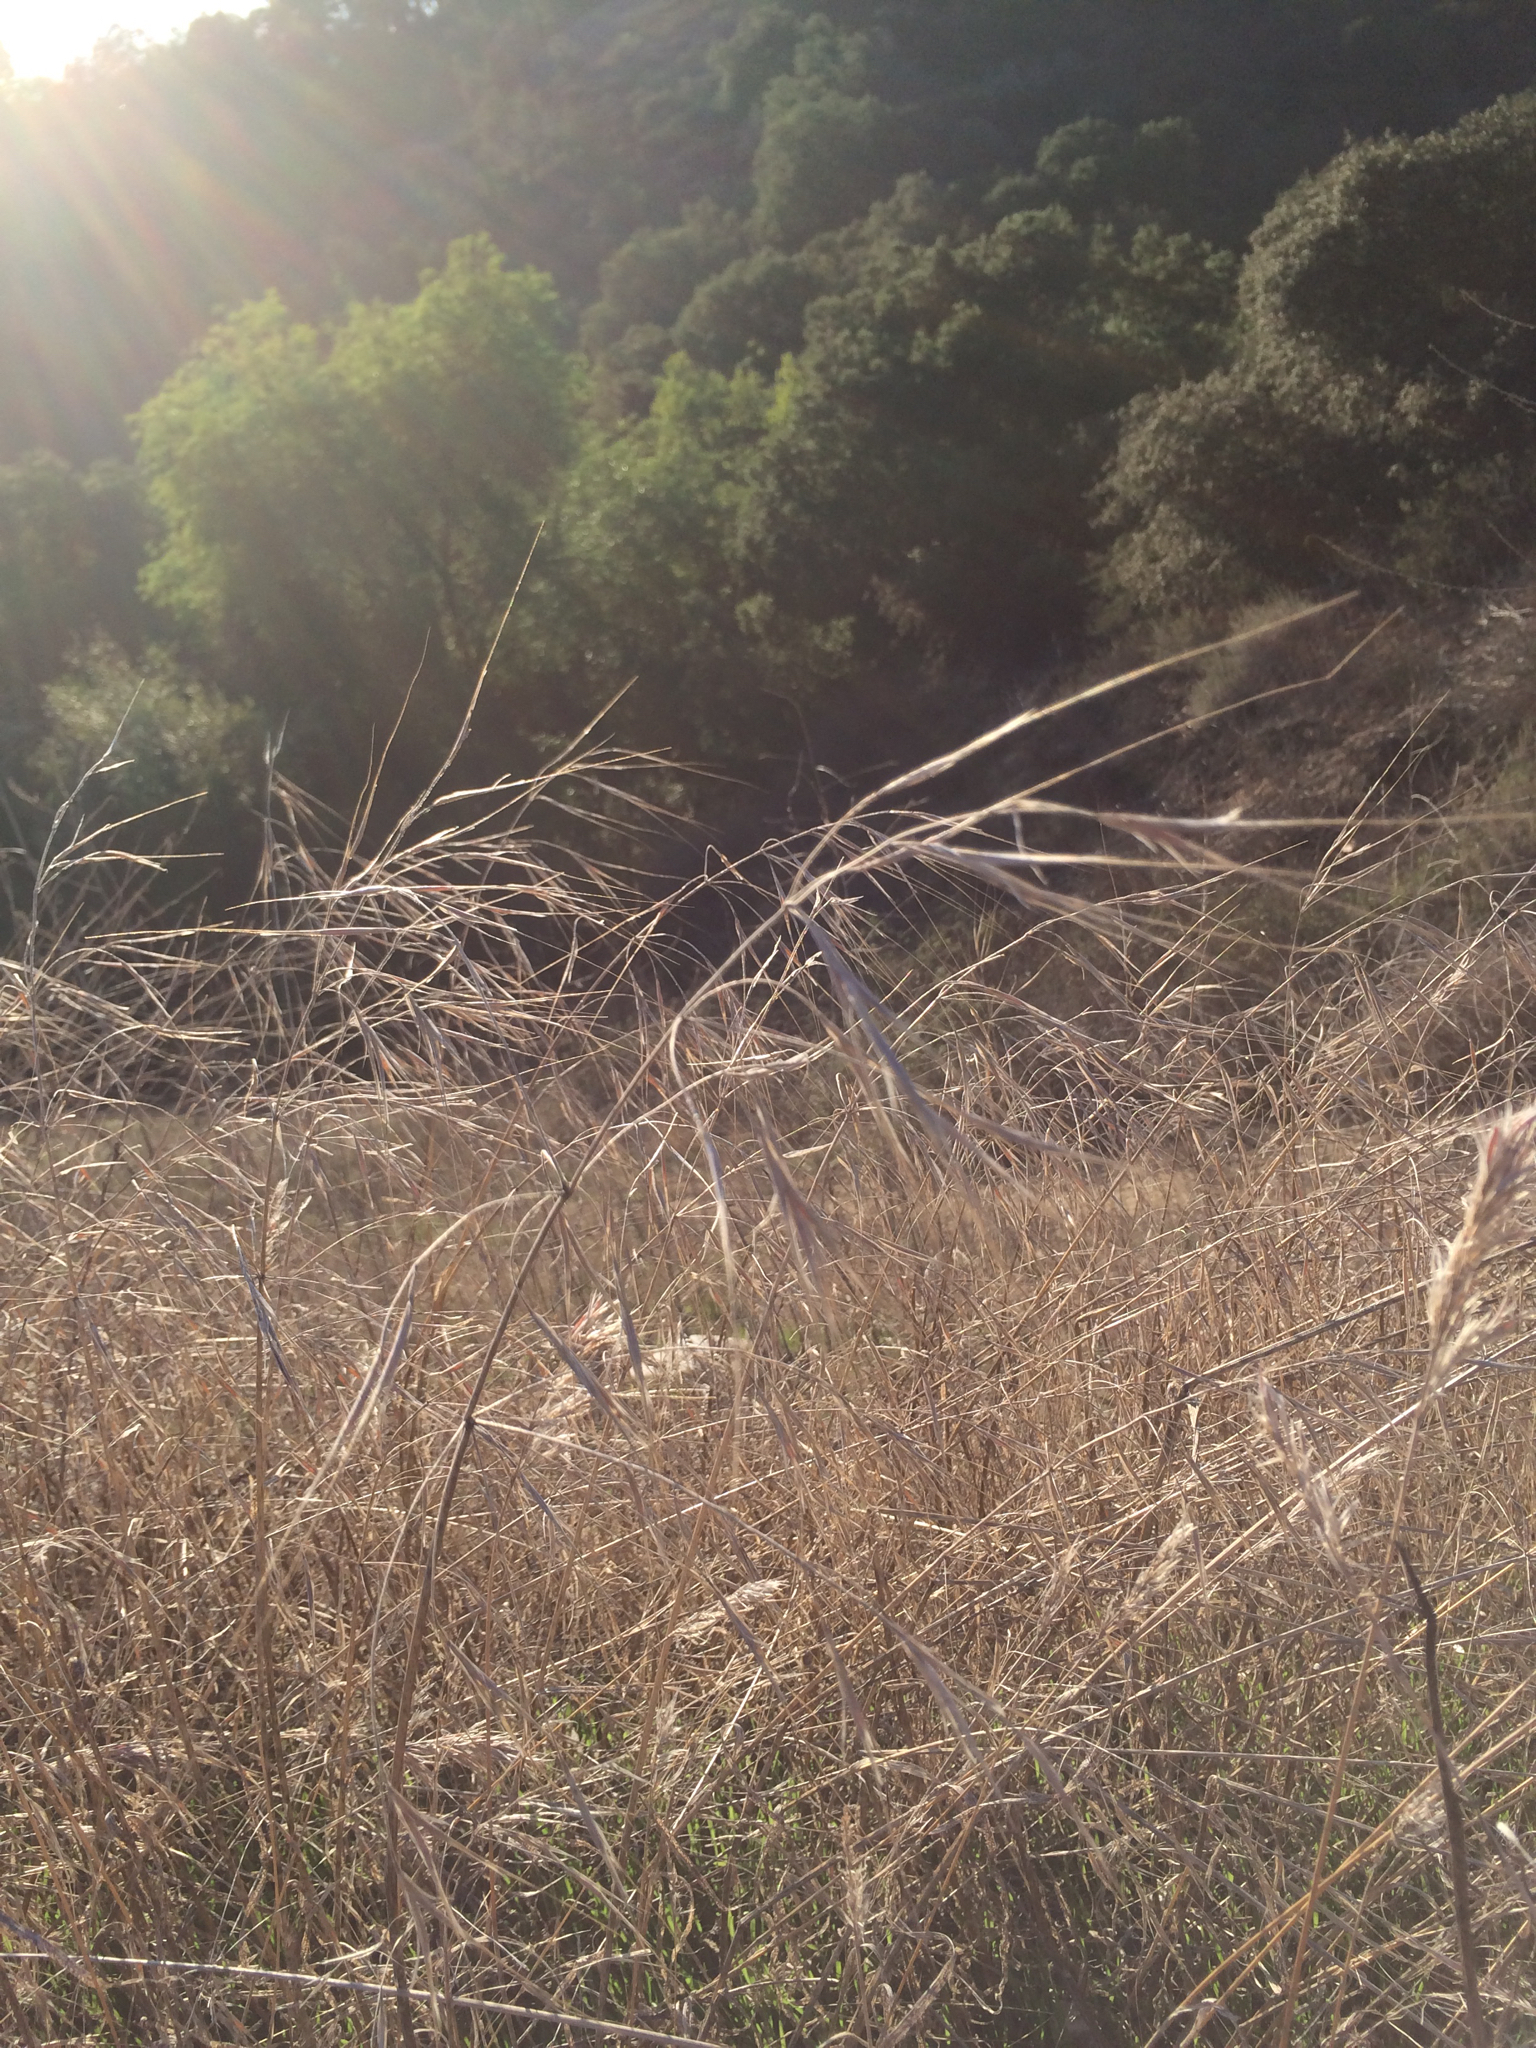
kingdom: Plantae
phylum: Tracheophyta
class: Liliopsida
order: Poales
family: Poaceae
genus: Bromus
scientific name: Bromus diandrus
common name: Ripgut brome
